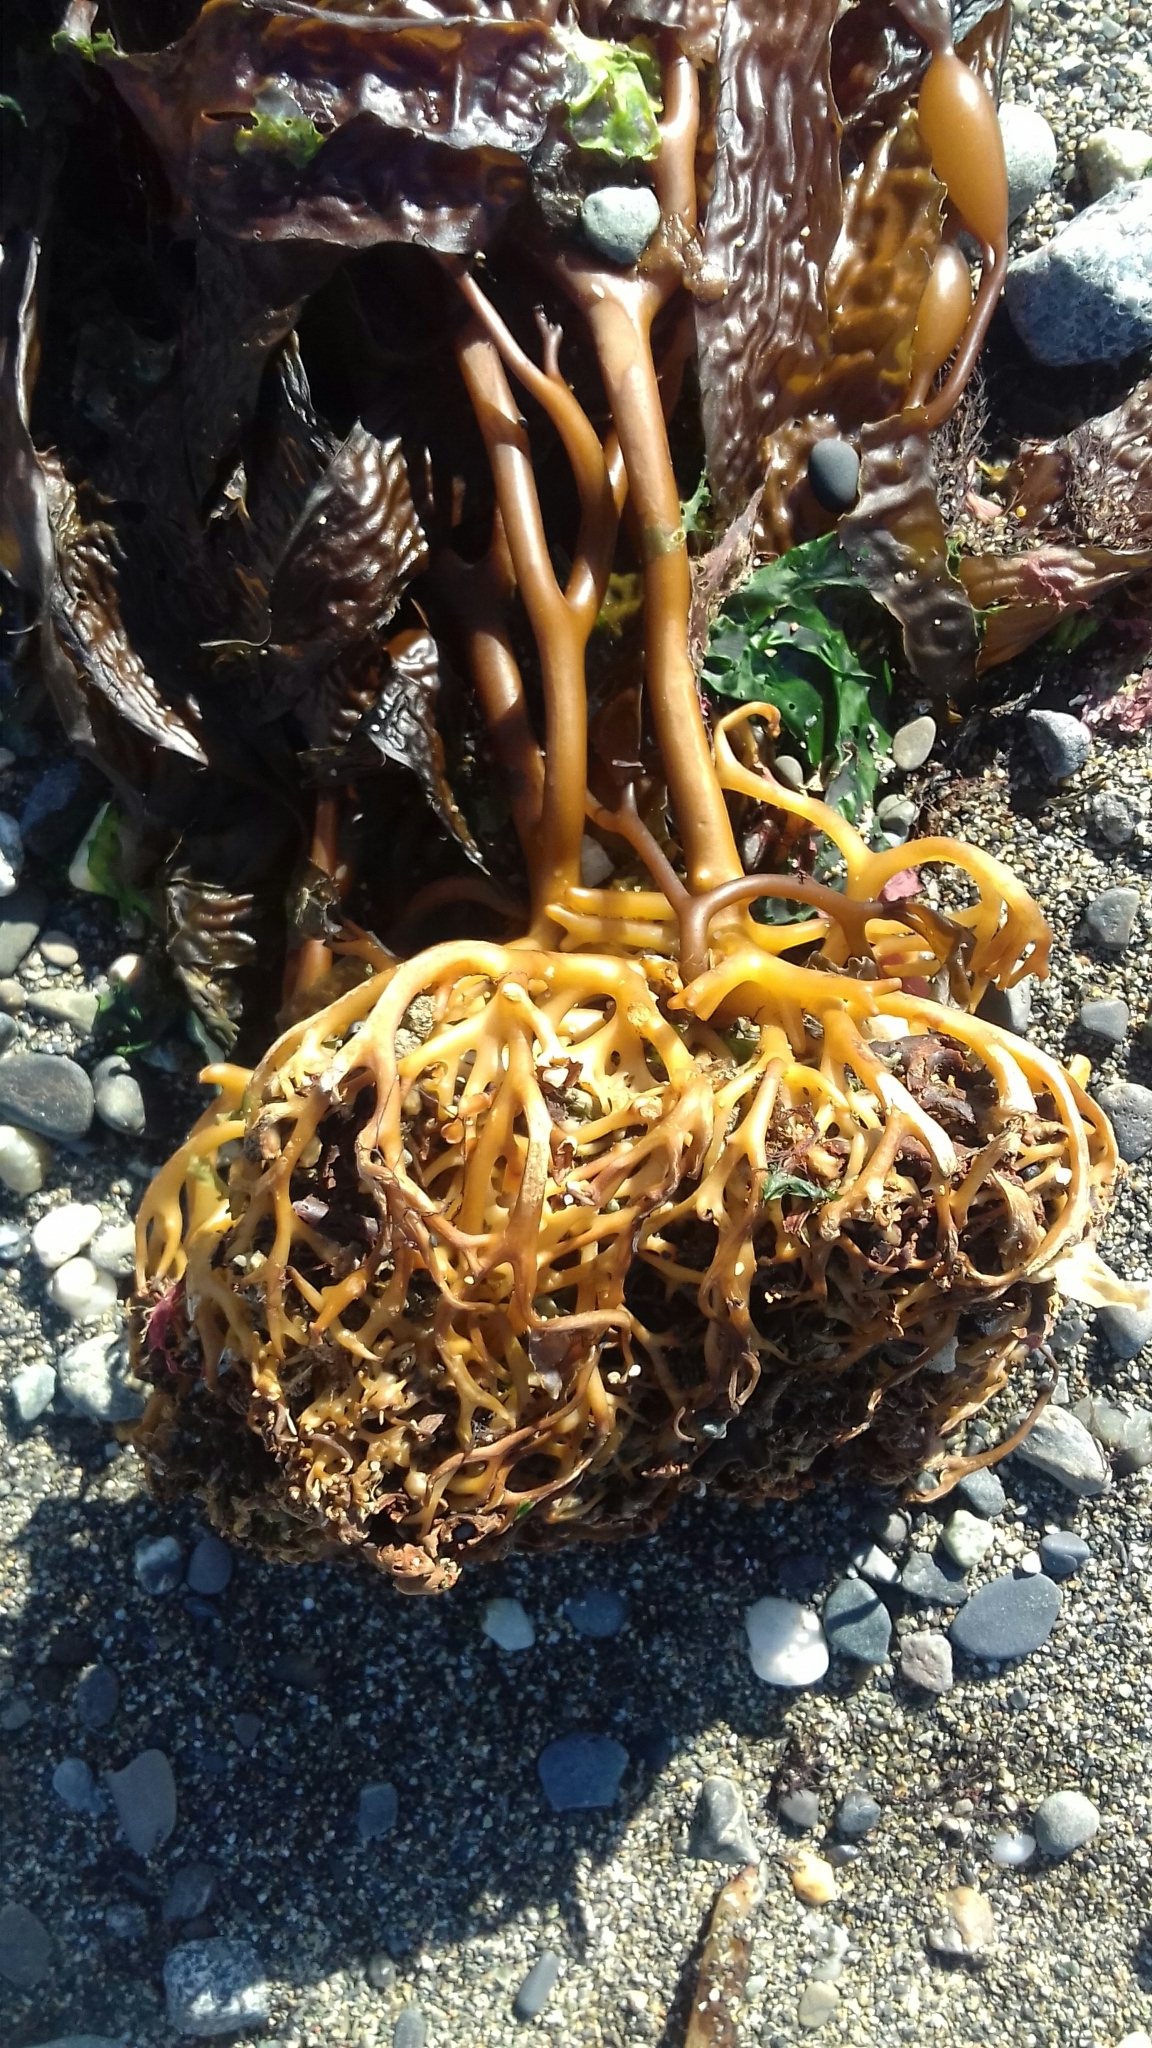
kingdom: Chromista
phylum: Ochrophyta
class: Phaeophyceae
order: Laminariales
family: Laminariaceae
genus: Macrocystis
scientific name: Macrocystis pyrifera
